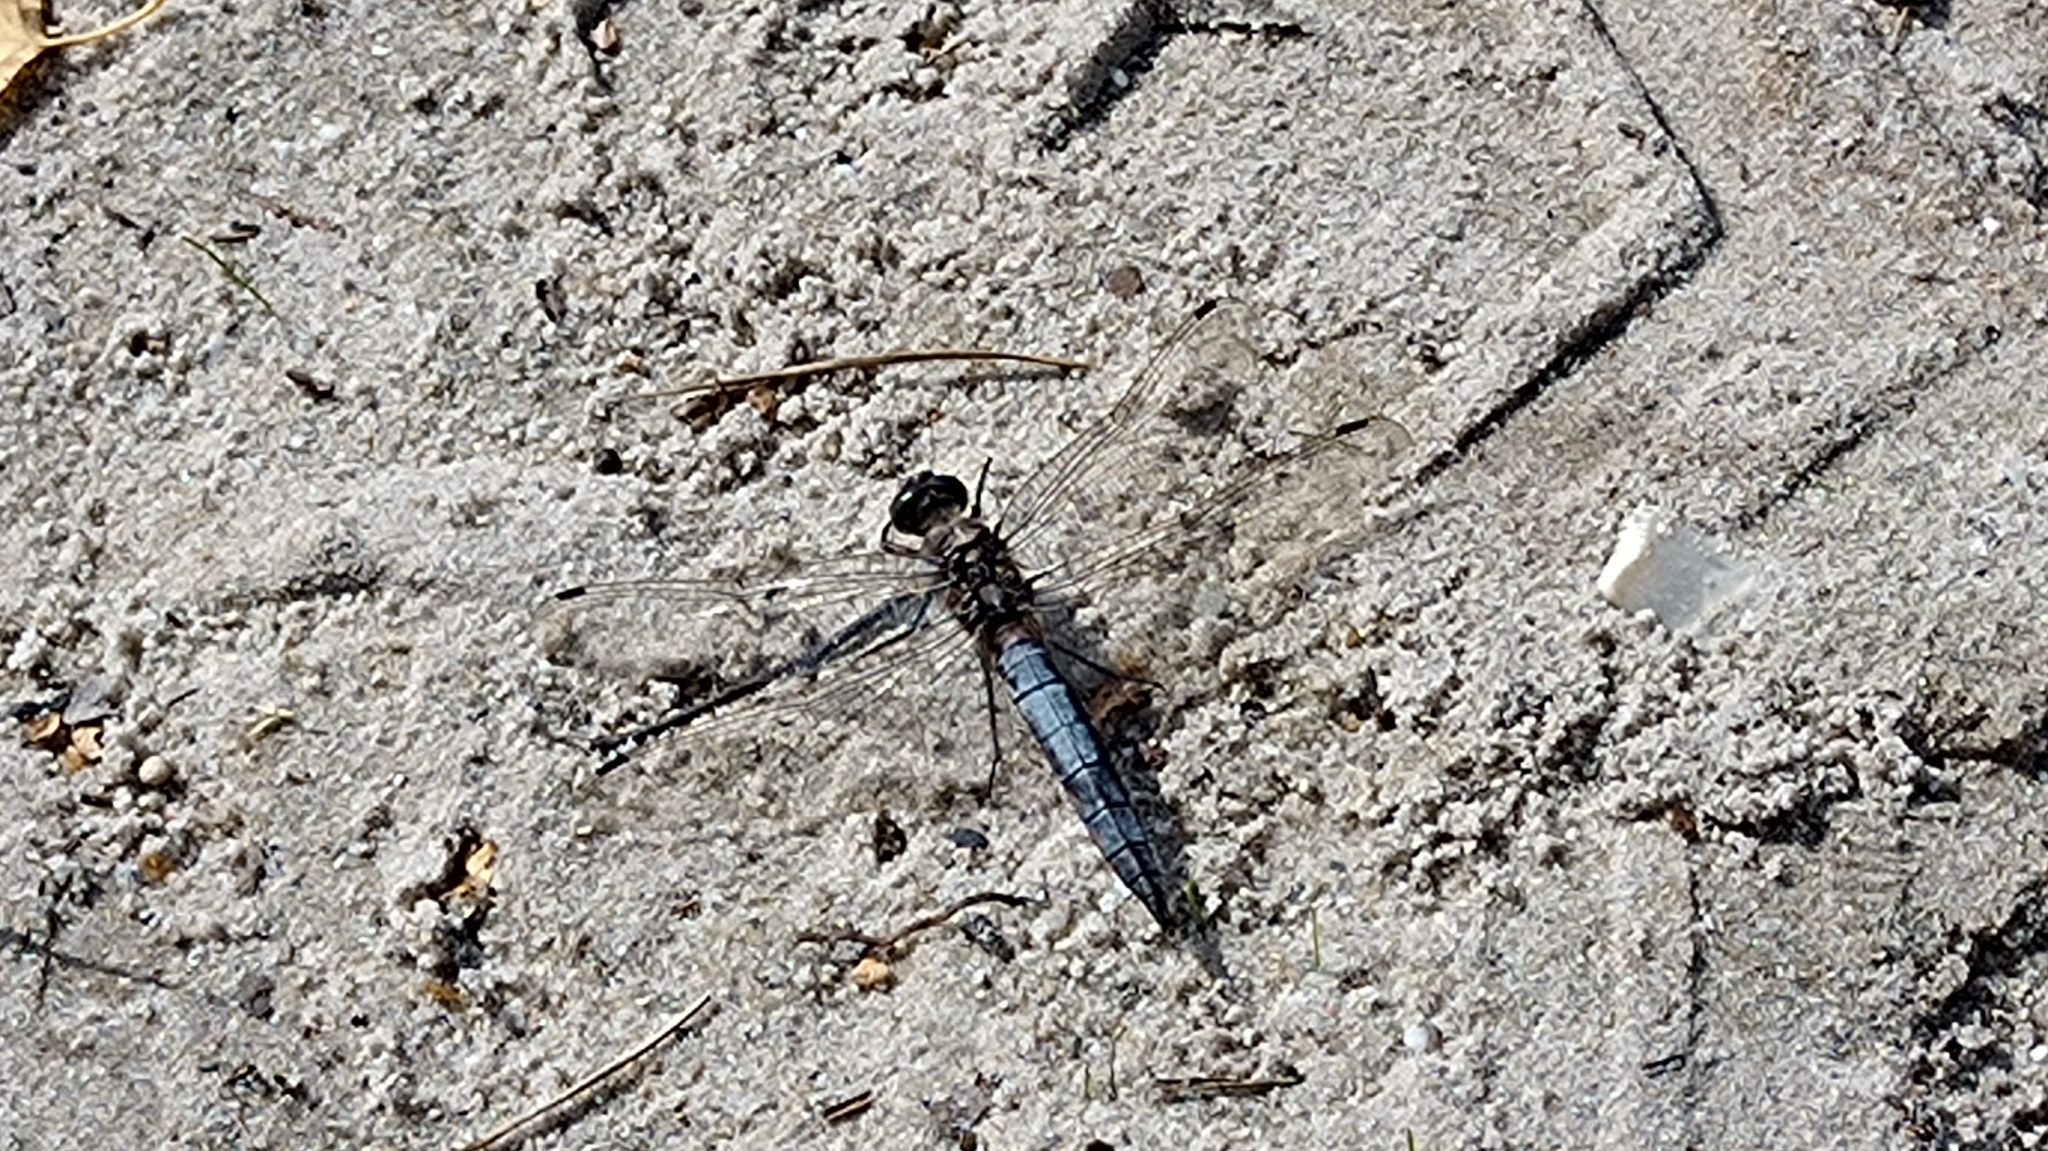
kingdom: Animalia
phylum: Arthropoda
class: Insecta
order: Odonata
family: Libellulidae
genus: Orthetrum
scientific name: Orthetrum cancellatum
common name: Black-tailed skimmer
